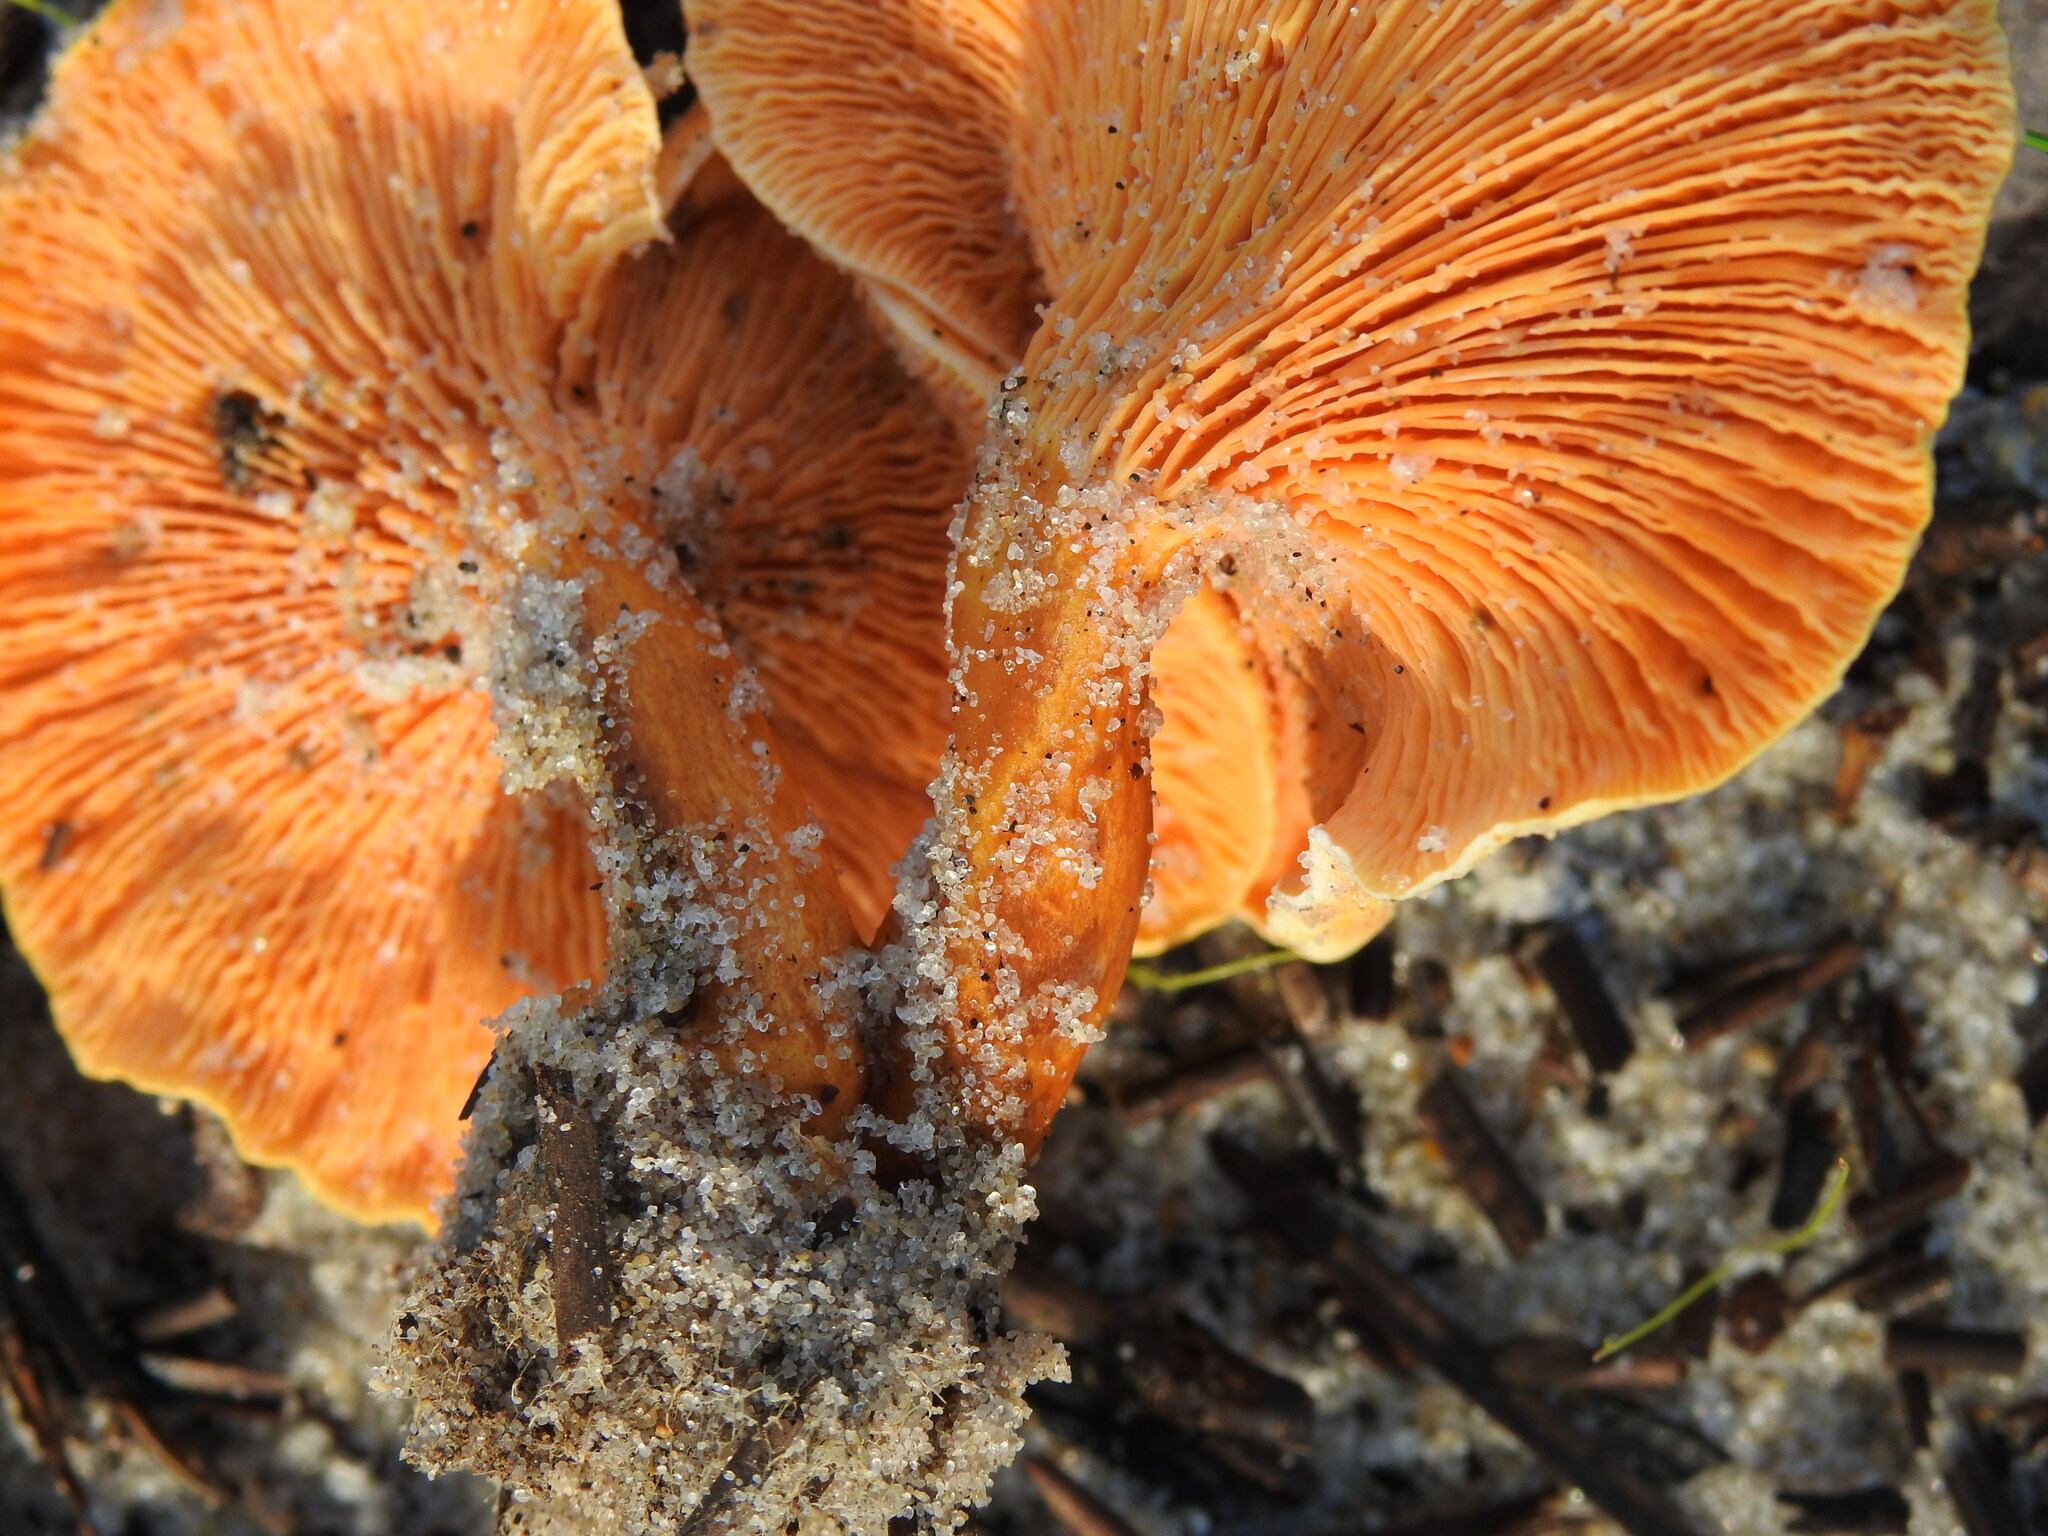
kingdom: Fungi
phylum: Basidiomycota
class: Agaricomycetes
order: Boletales
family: Hygrophoropsidaceae
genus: Hygrophoropsis
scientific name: Hygrophoropsis aurantiaca
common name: False chanterelle
